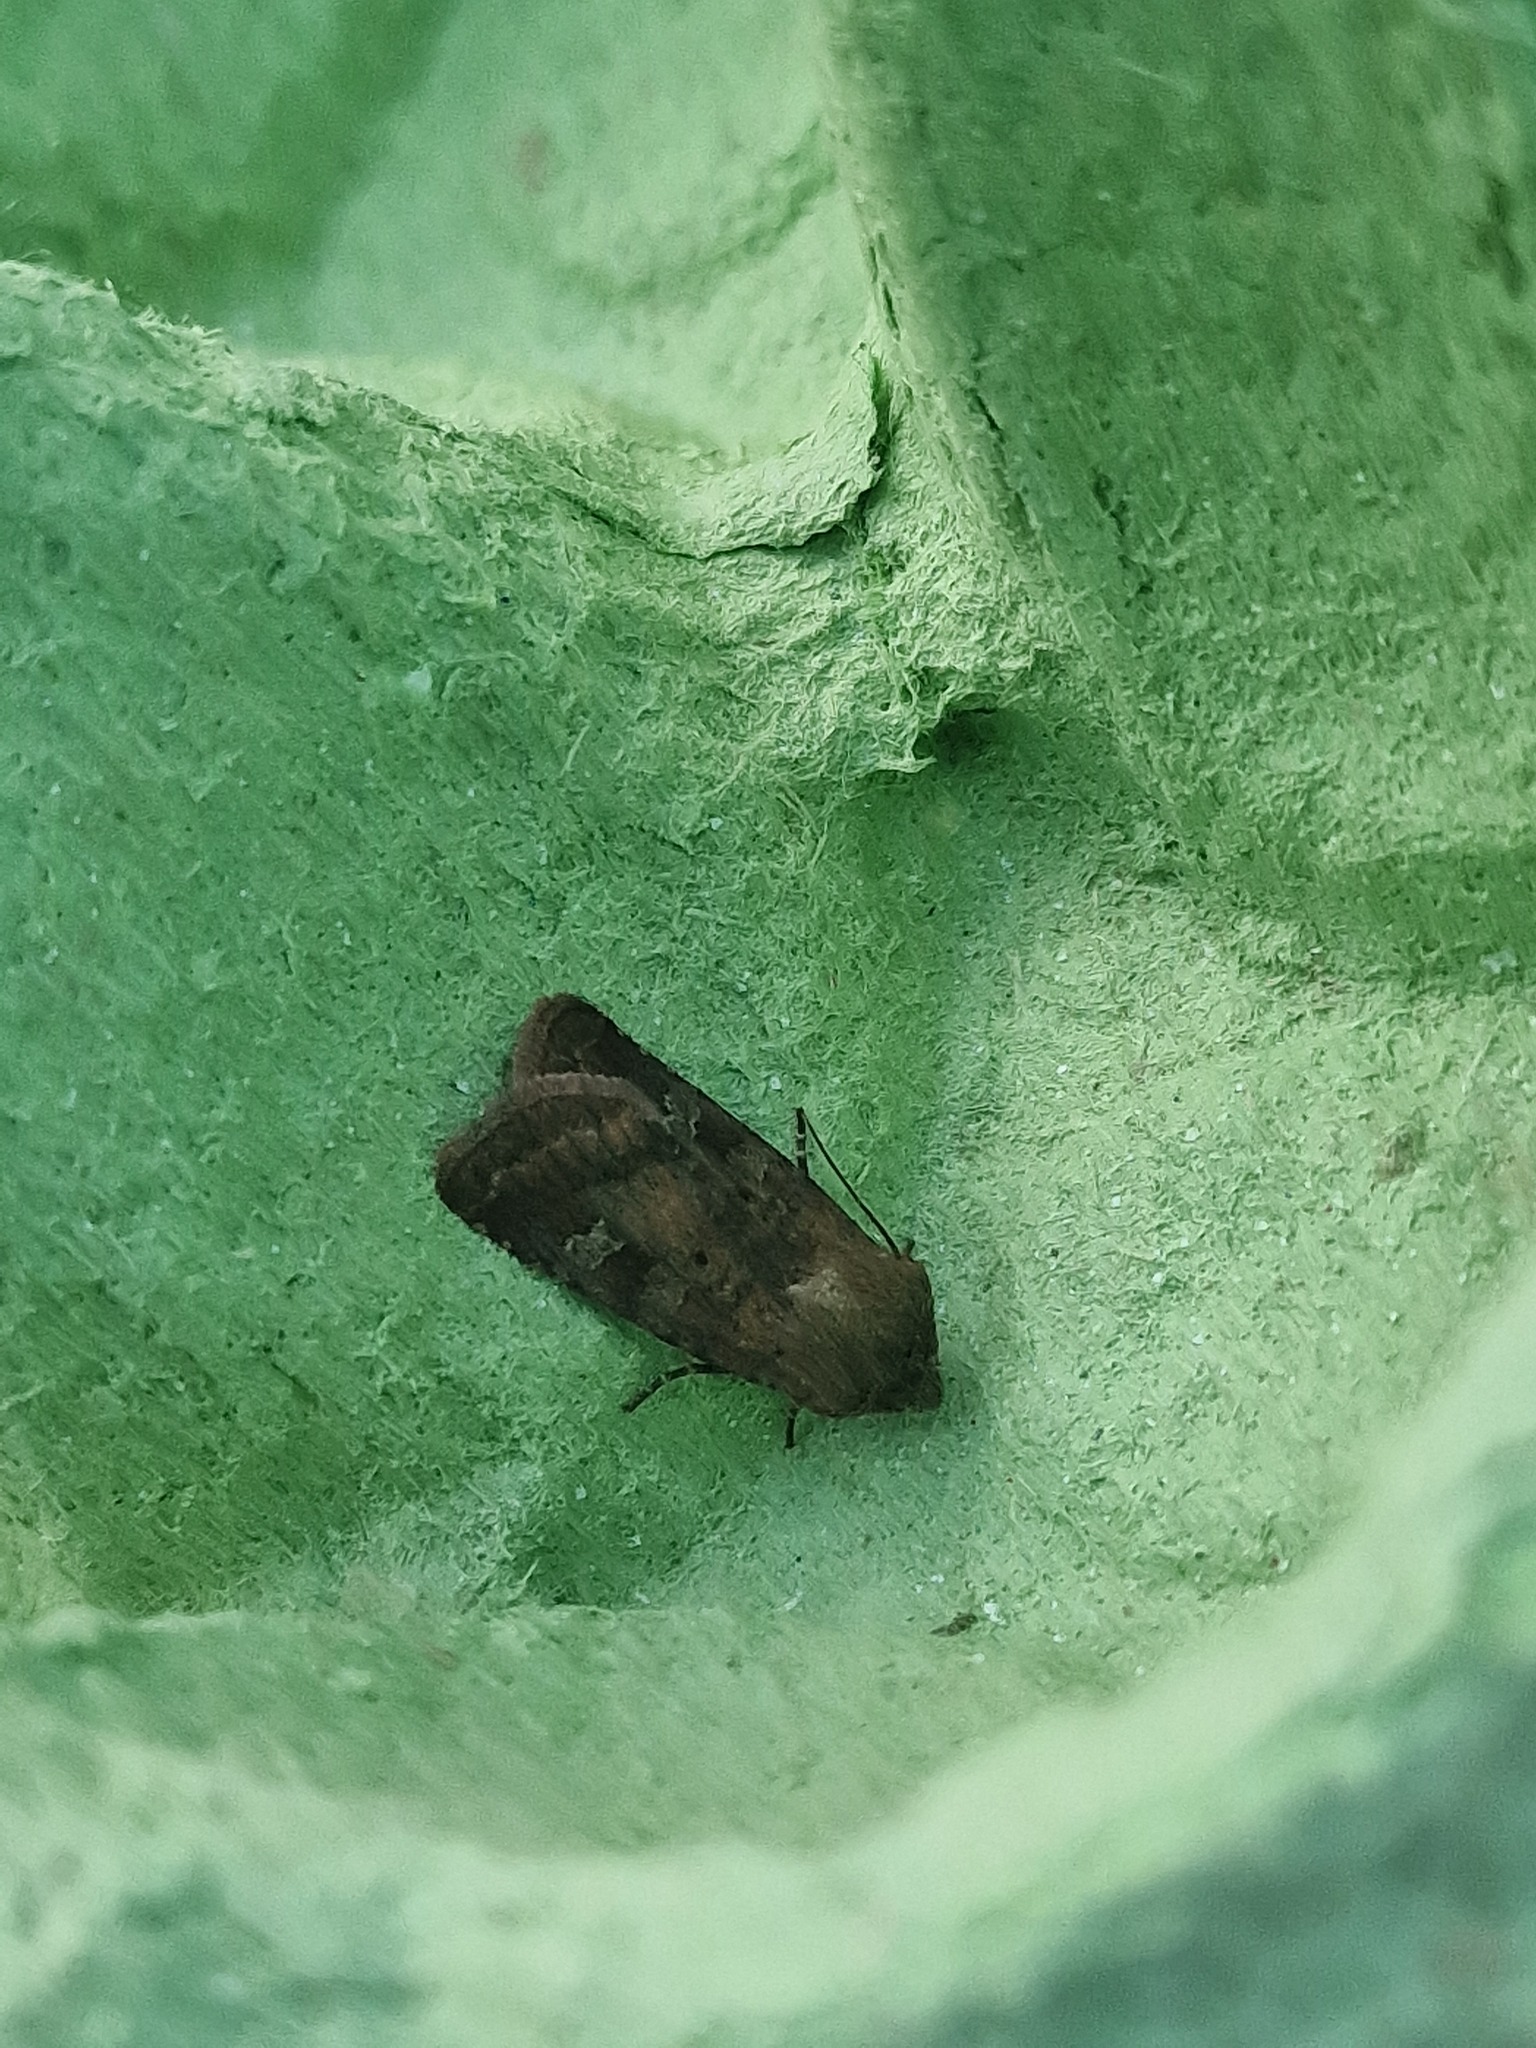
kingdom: Animalia
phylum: Arthropoda
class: Insecta
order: Lepidoptera
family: Noctuidae
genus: Diarsia
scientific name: Diarsia rubi
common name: Small square-spot
